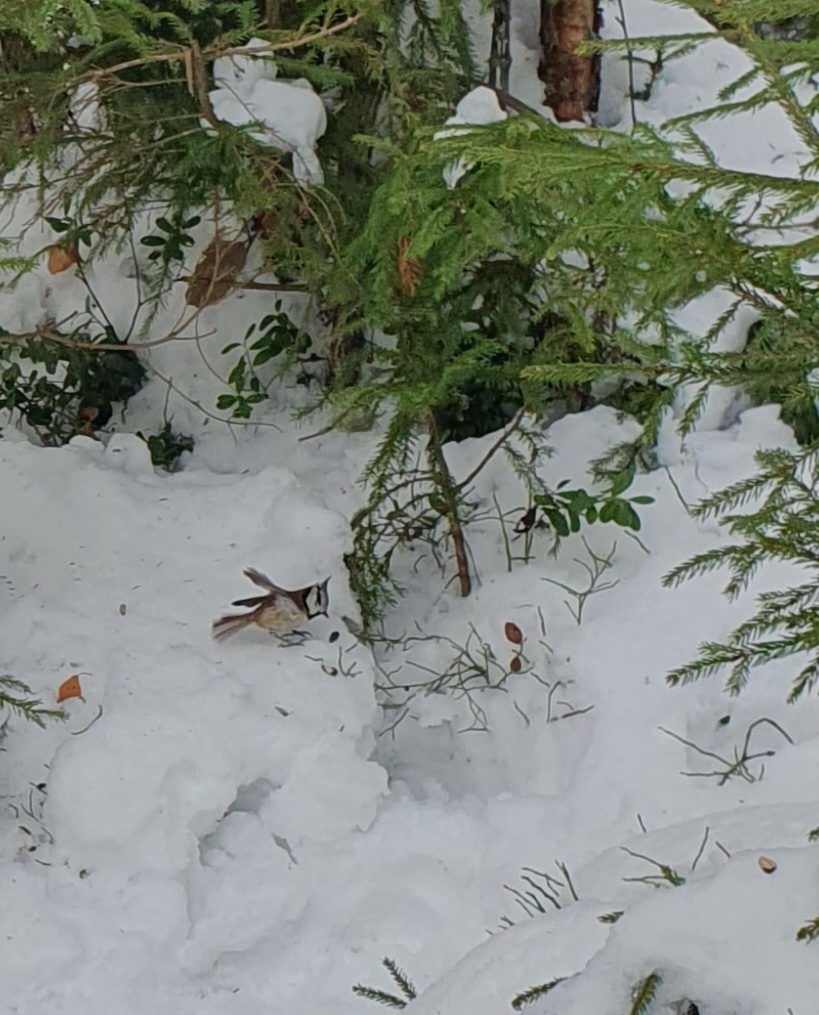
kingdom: Animalia
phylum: Chordata
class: Aves
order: Passeriformes
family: Paridae
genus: Lophophanes
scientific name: Lophophanes cristatus
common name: European crested tit
